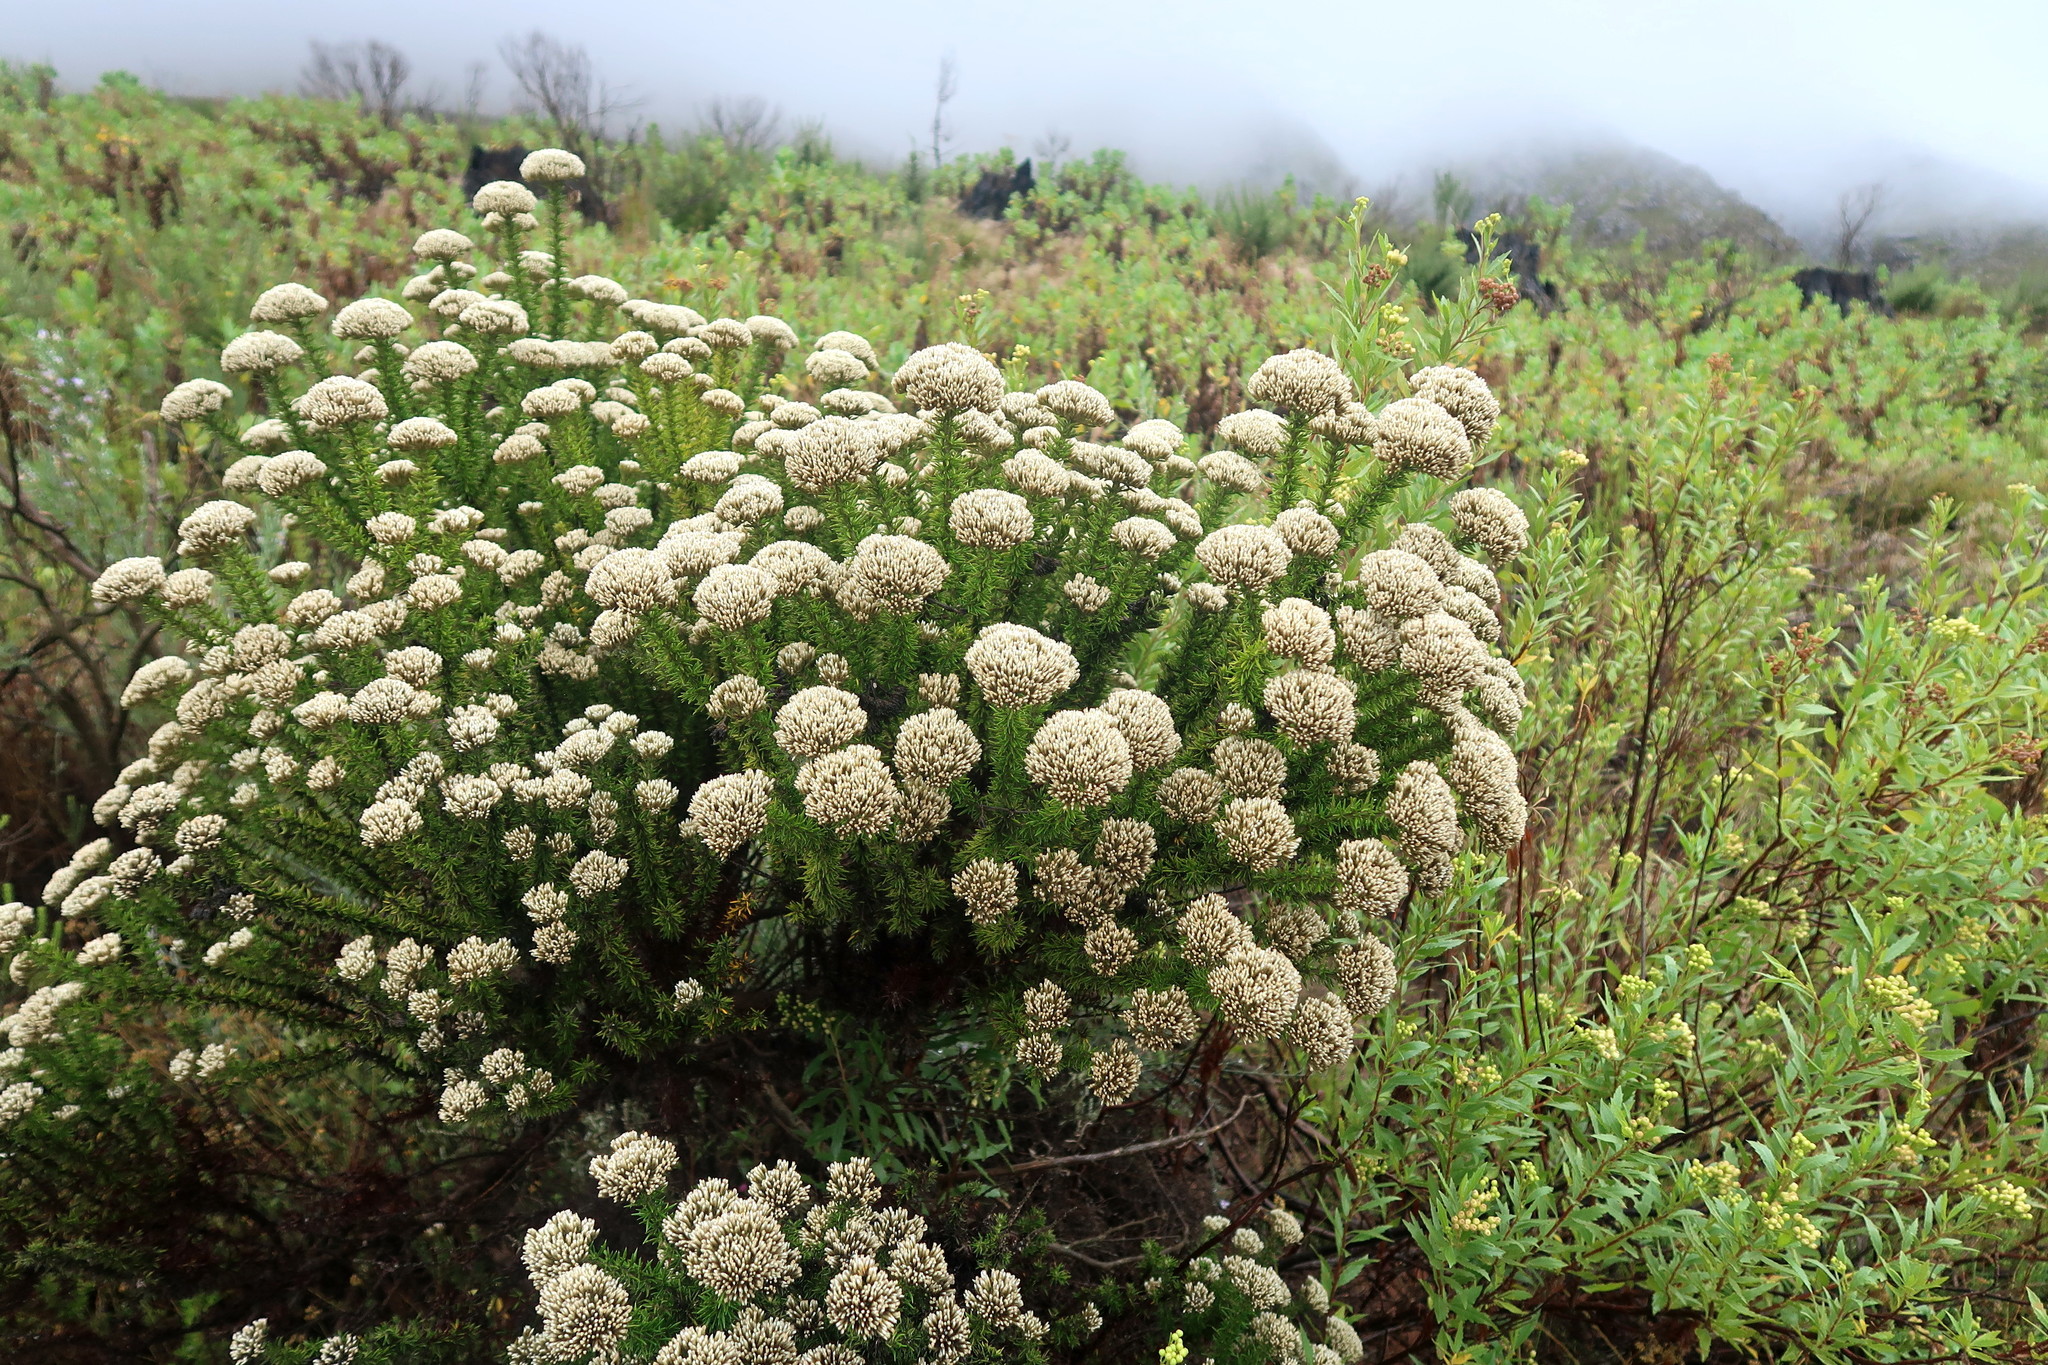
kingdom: Plantae
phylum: Tracheophyta
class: Magnoliopsida
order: Asterales
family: Asteraceae
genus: Metalasia
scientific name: Metalasia trivialis
